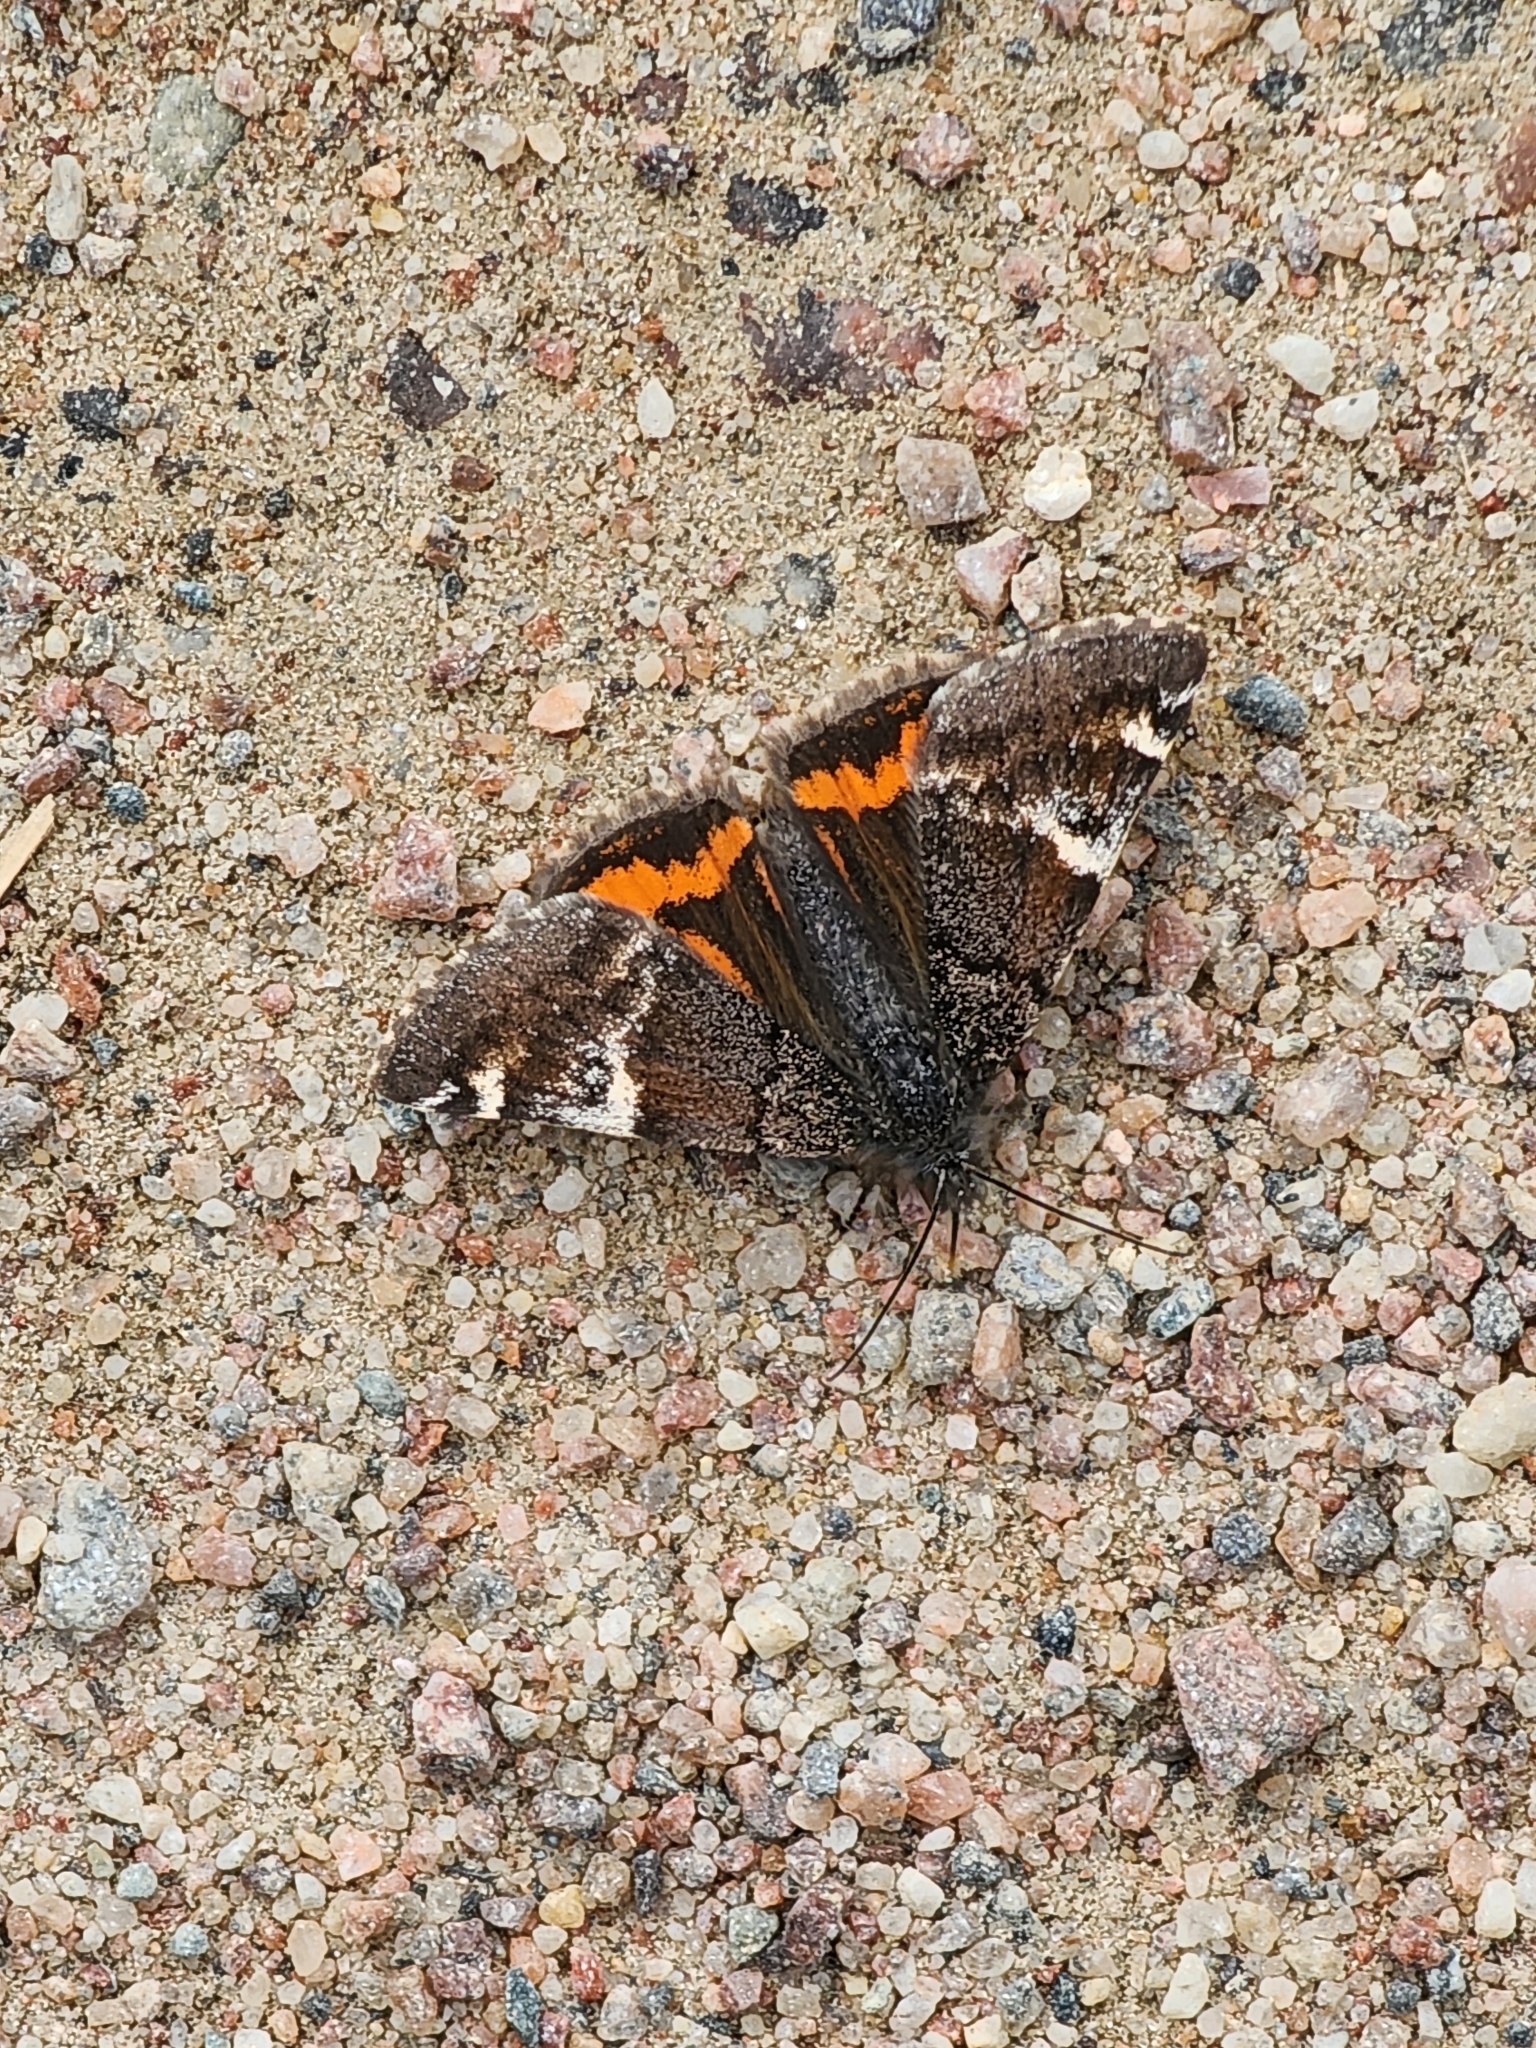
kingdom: Animalia
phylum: Arthropoda
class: Insecta
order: Lepidoptera
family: Geometridae
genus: Archiearis
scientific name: Archiearis infans
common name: First born geometer
